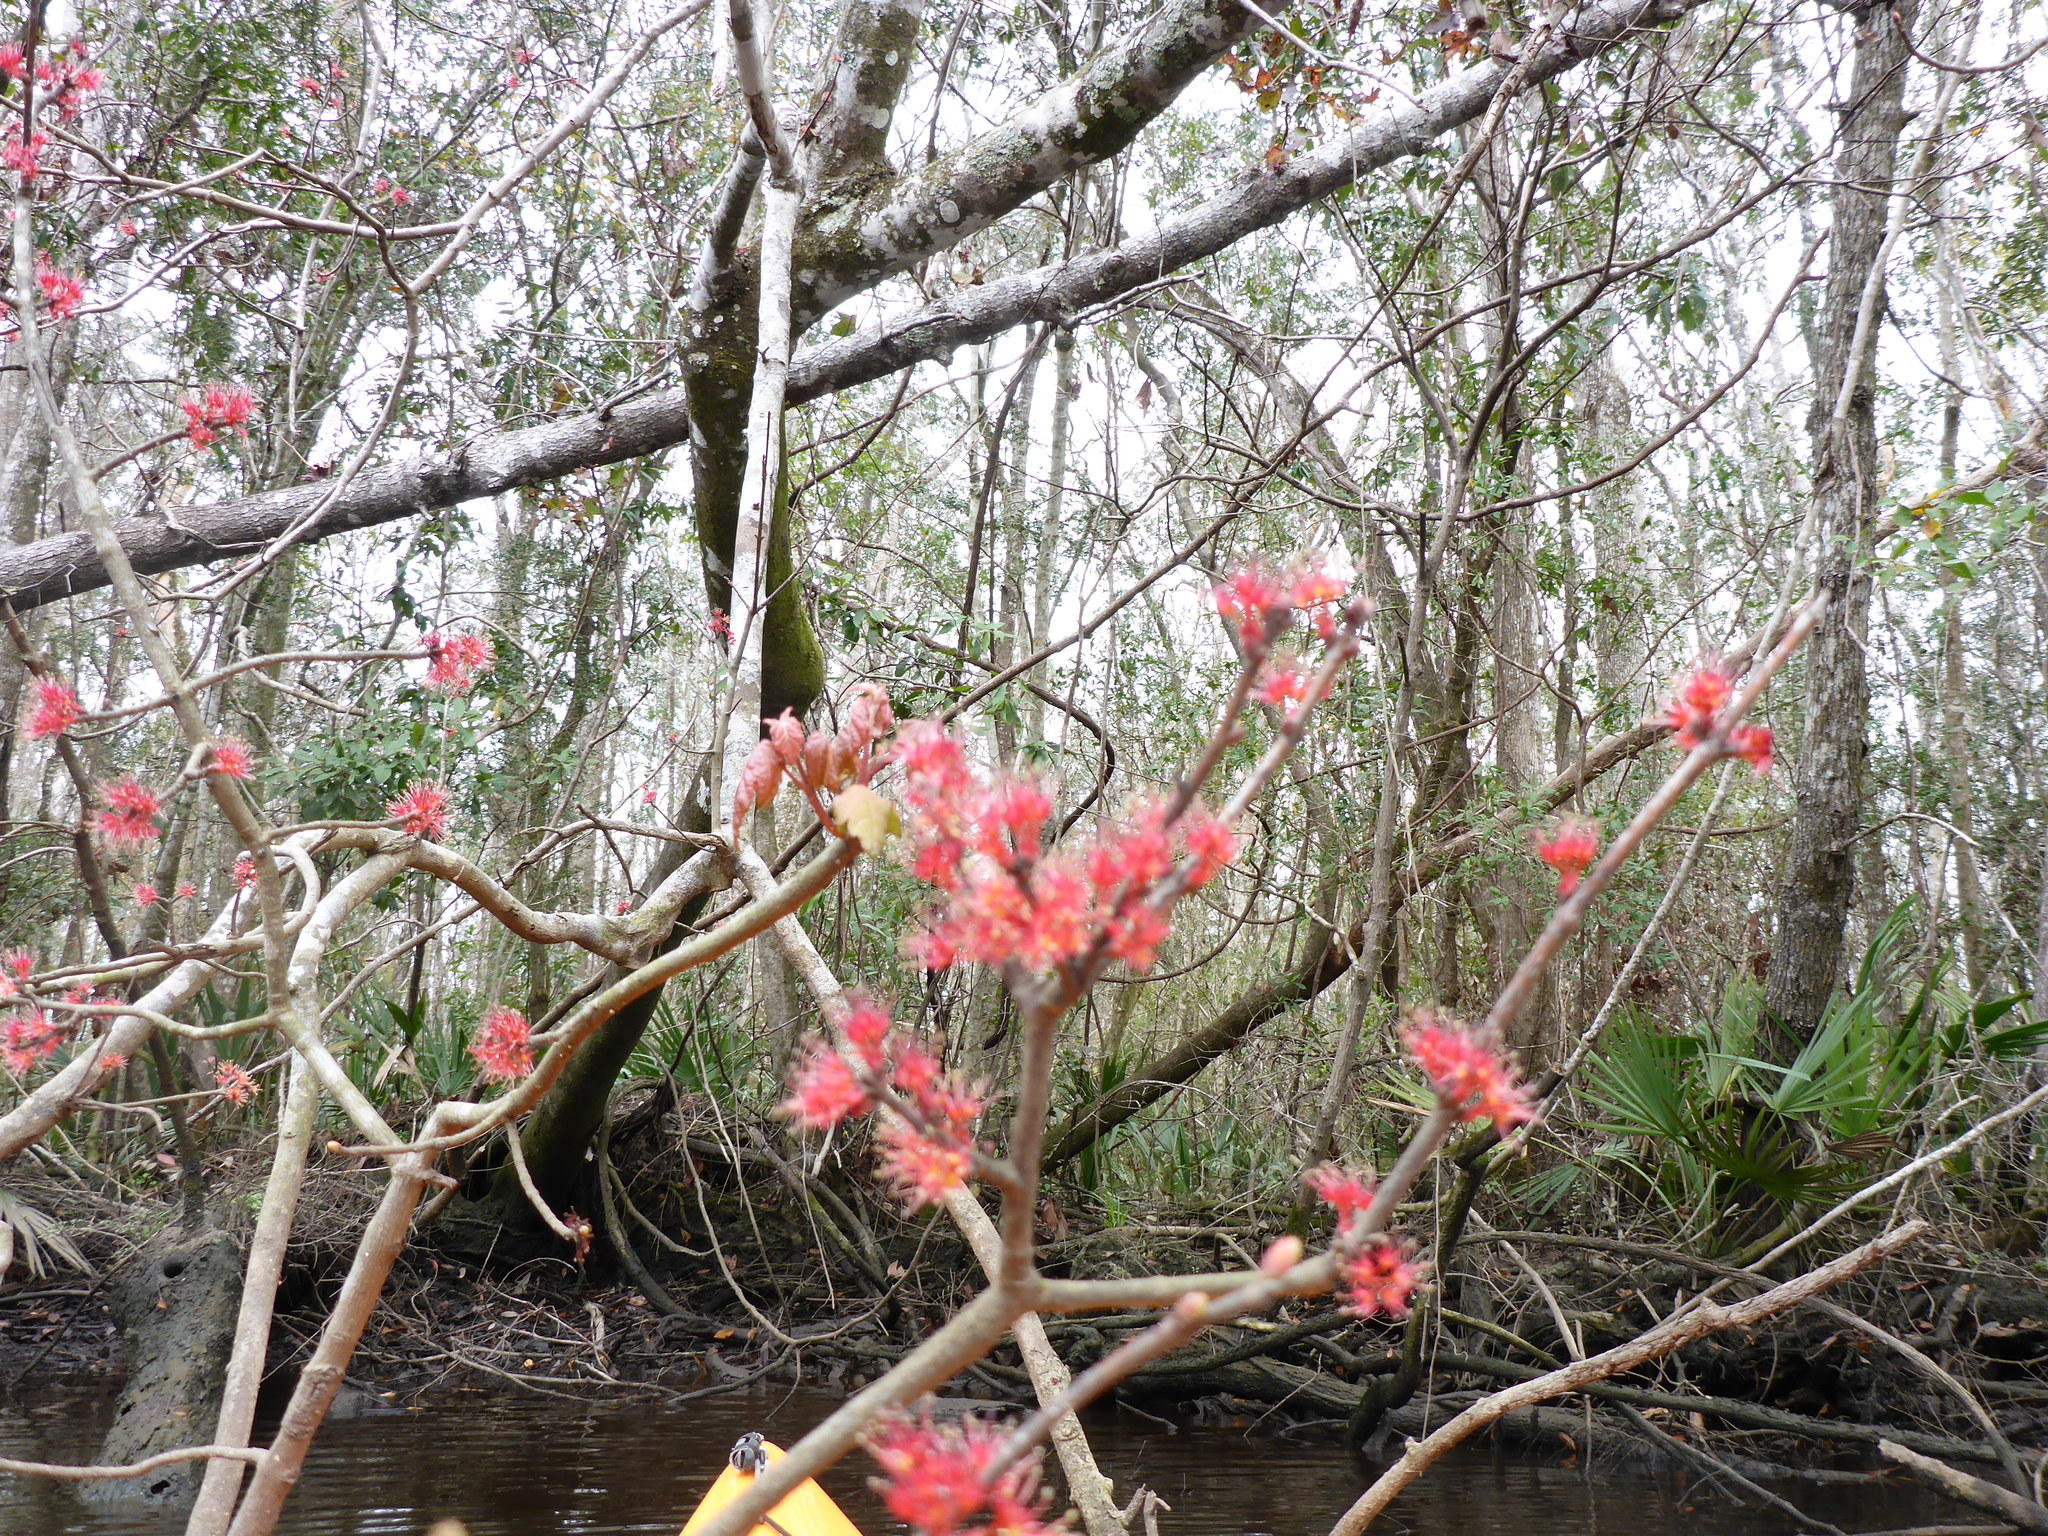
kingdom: Plantae
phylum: Tracheophyta
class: Magnoliopsida
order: Sapindales
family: Sapindaceae
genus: Acer
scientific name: Acer rubrum
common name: Red maple
